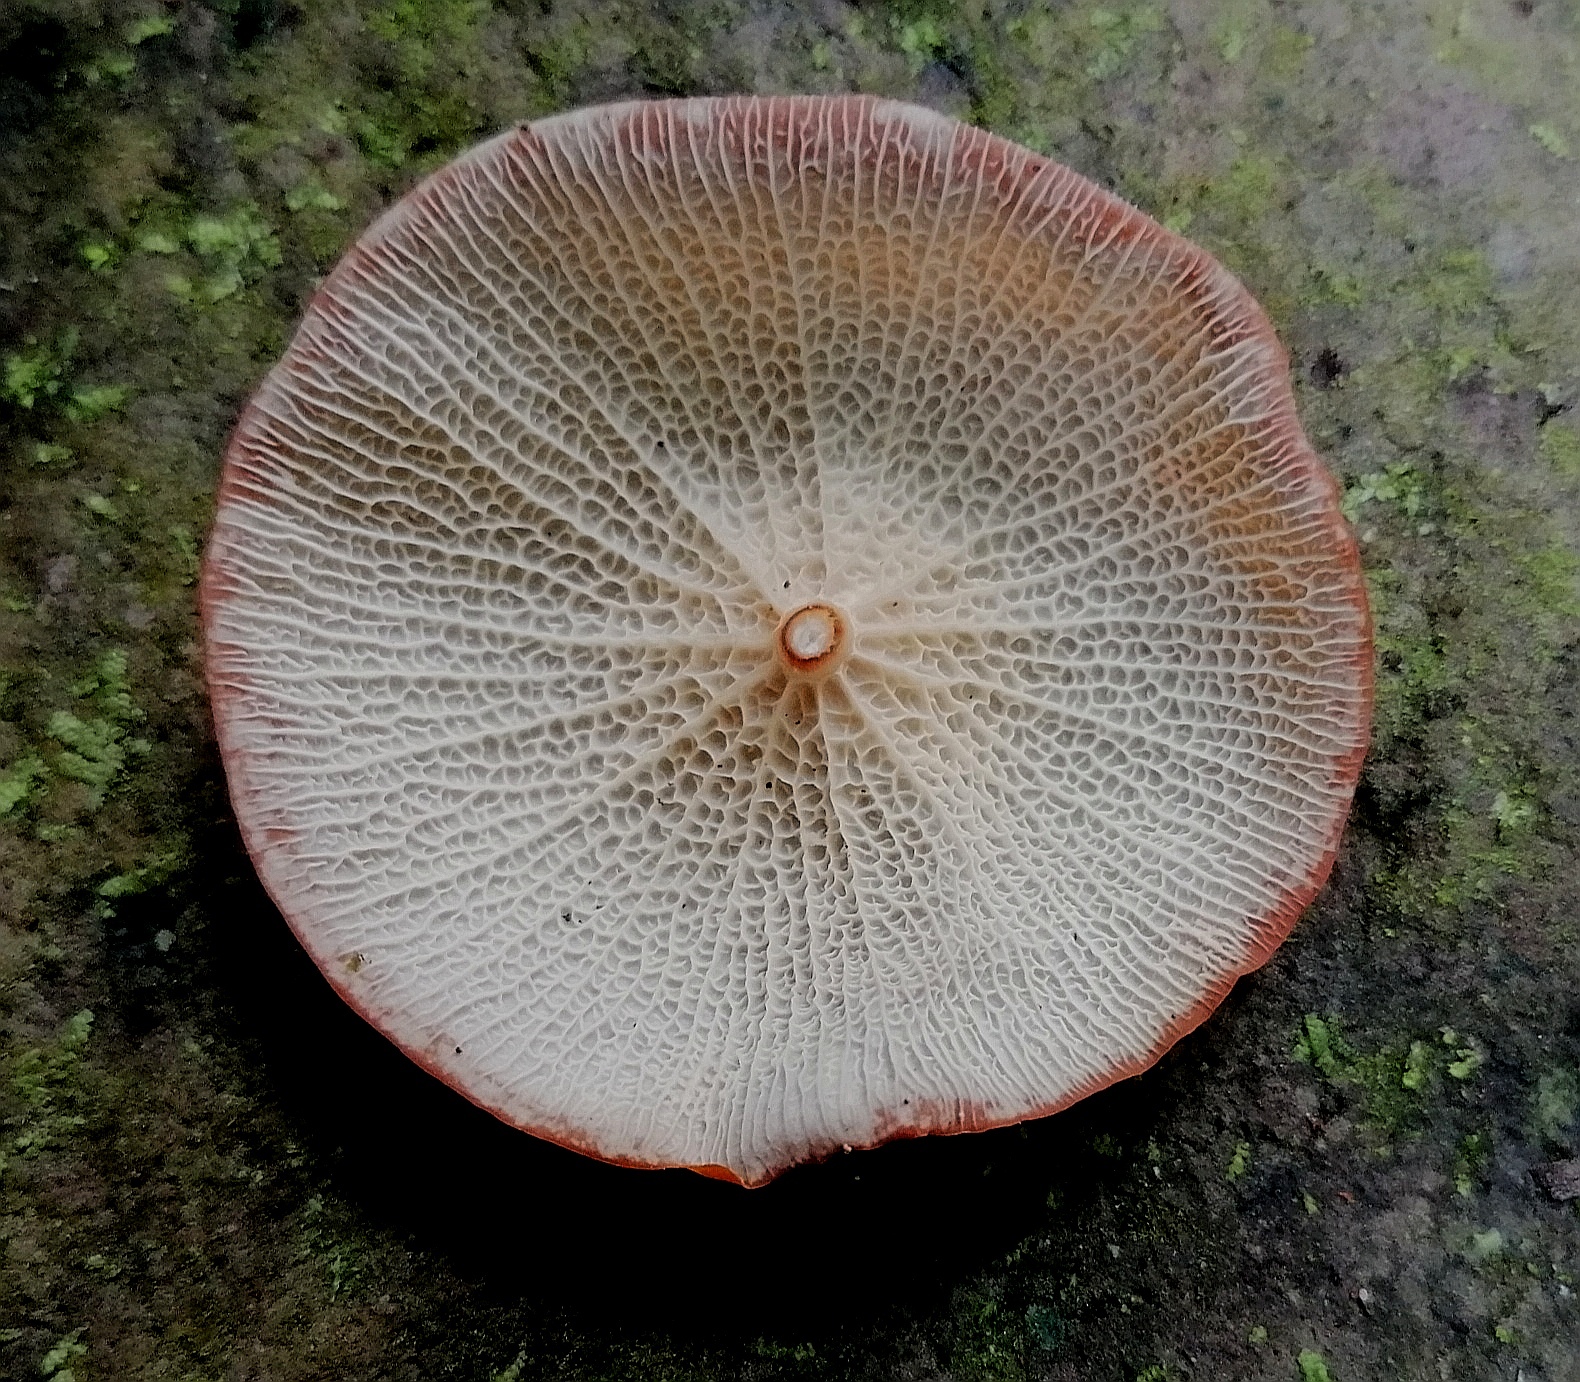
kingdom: Fungi
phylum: Basidiomycota
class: Agaricomycetes
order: Agaricales
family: Marasmiaceae
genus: Marasmius
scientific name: Marasmius cladophyllus
